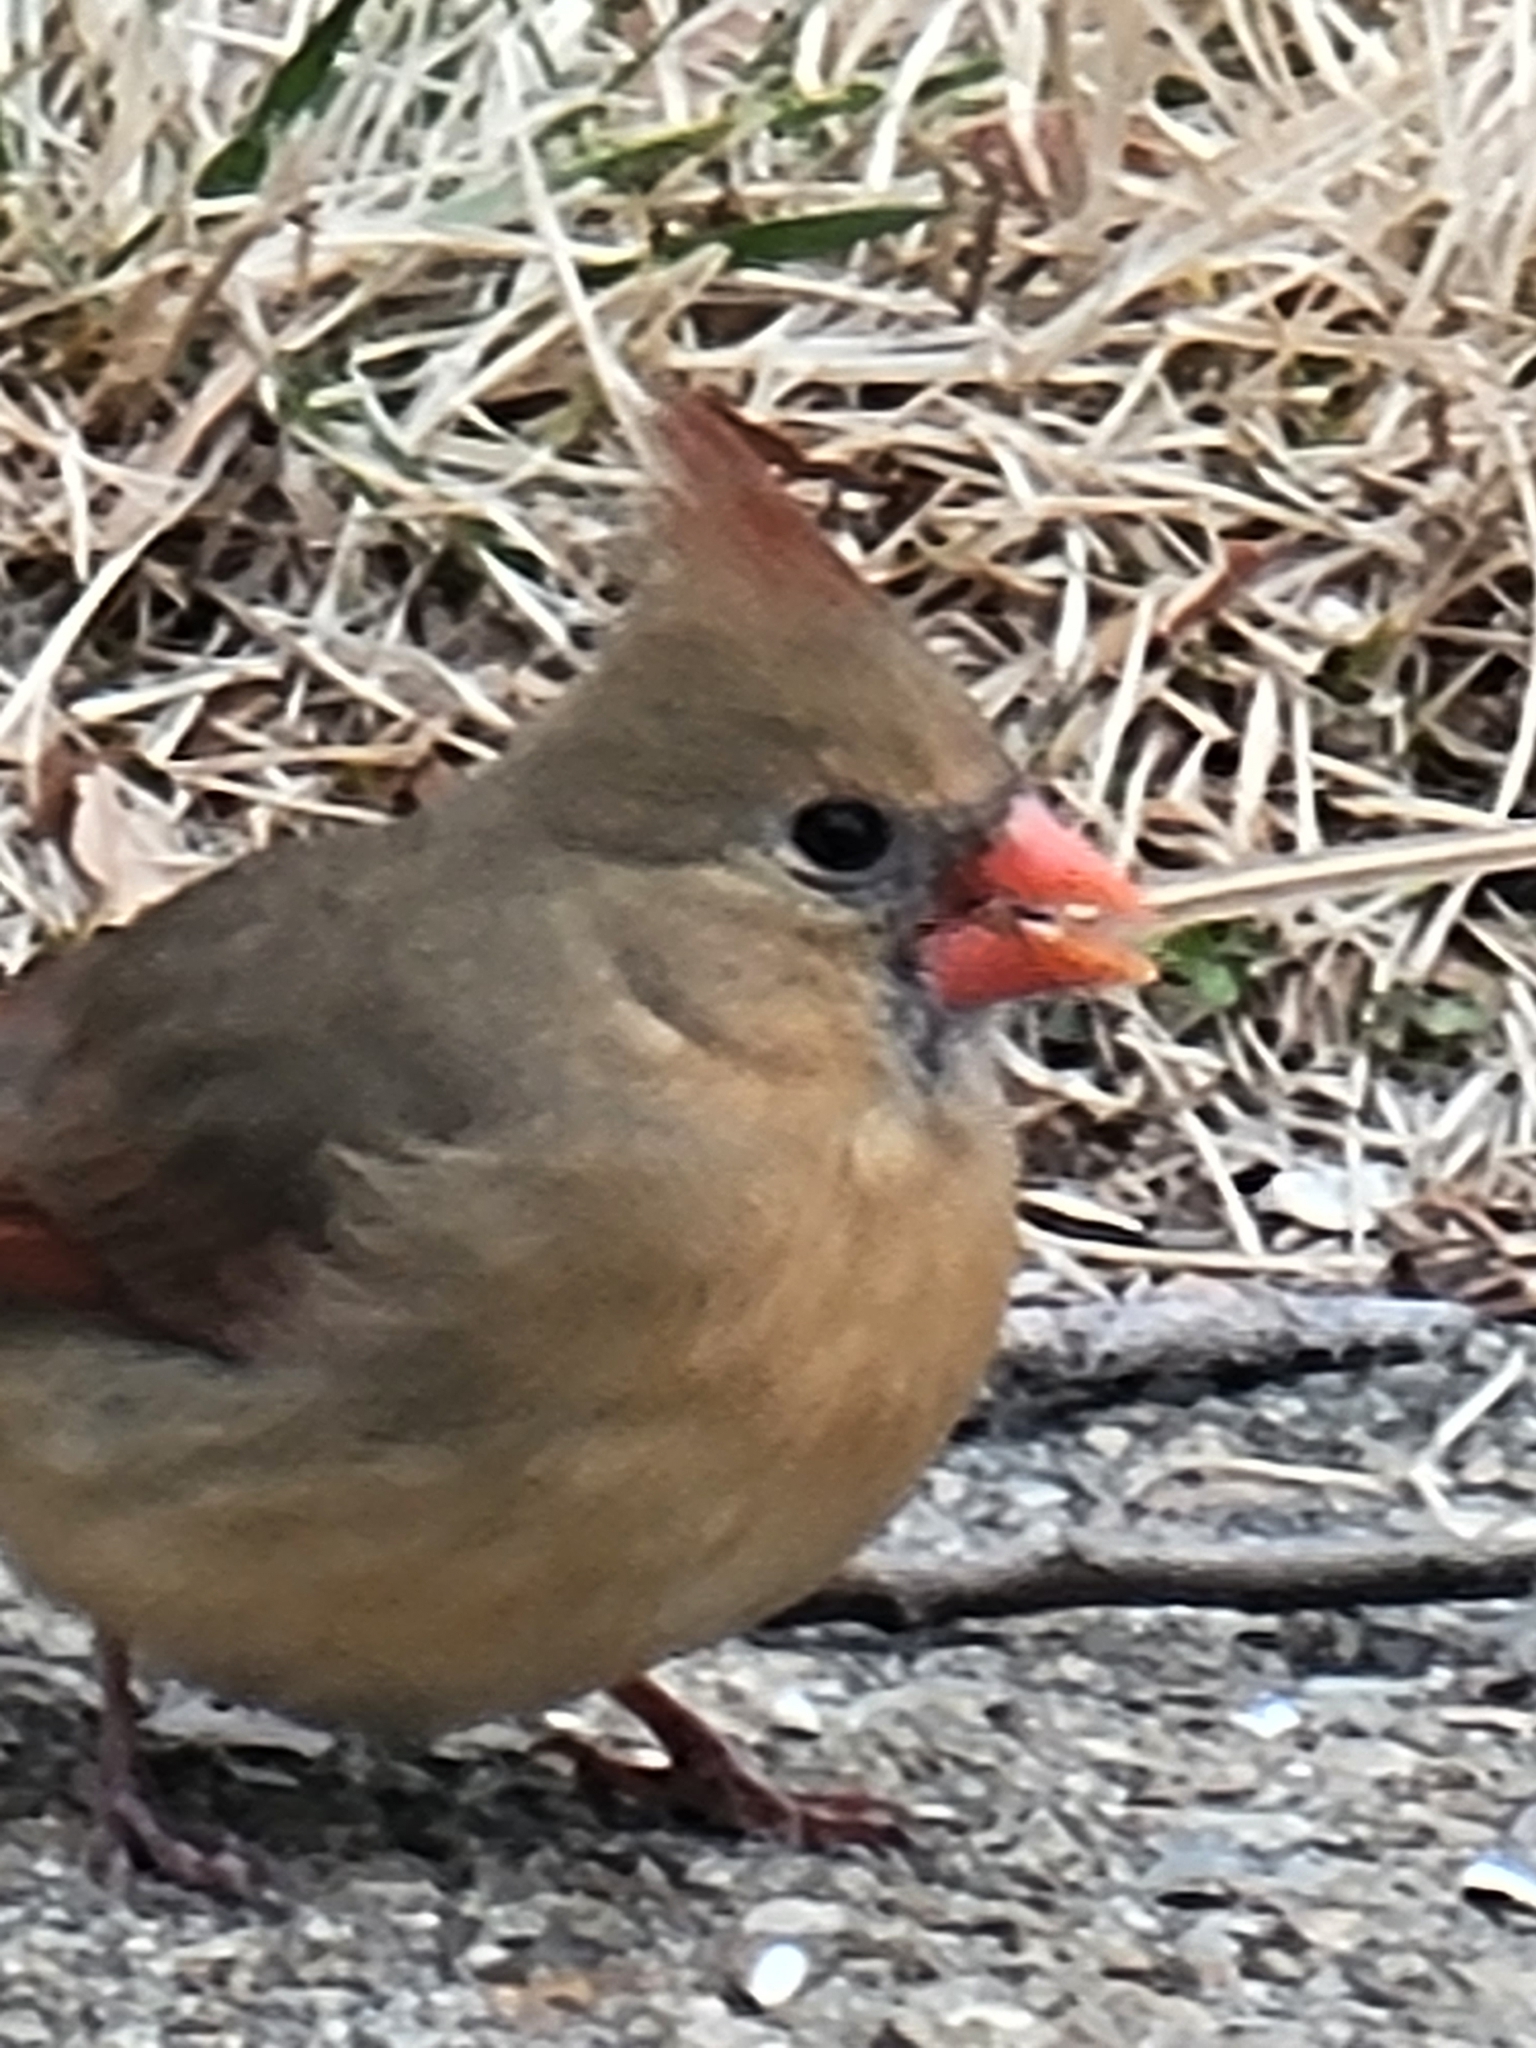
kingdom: Animalia
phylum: Chordata
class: Aves
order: Passeriformes
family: Cardinalidae
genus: Cardinalis
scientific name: Cardinalis cardinalis
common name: Northern cardinal
